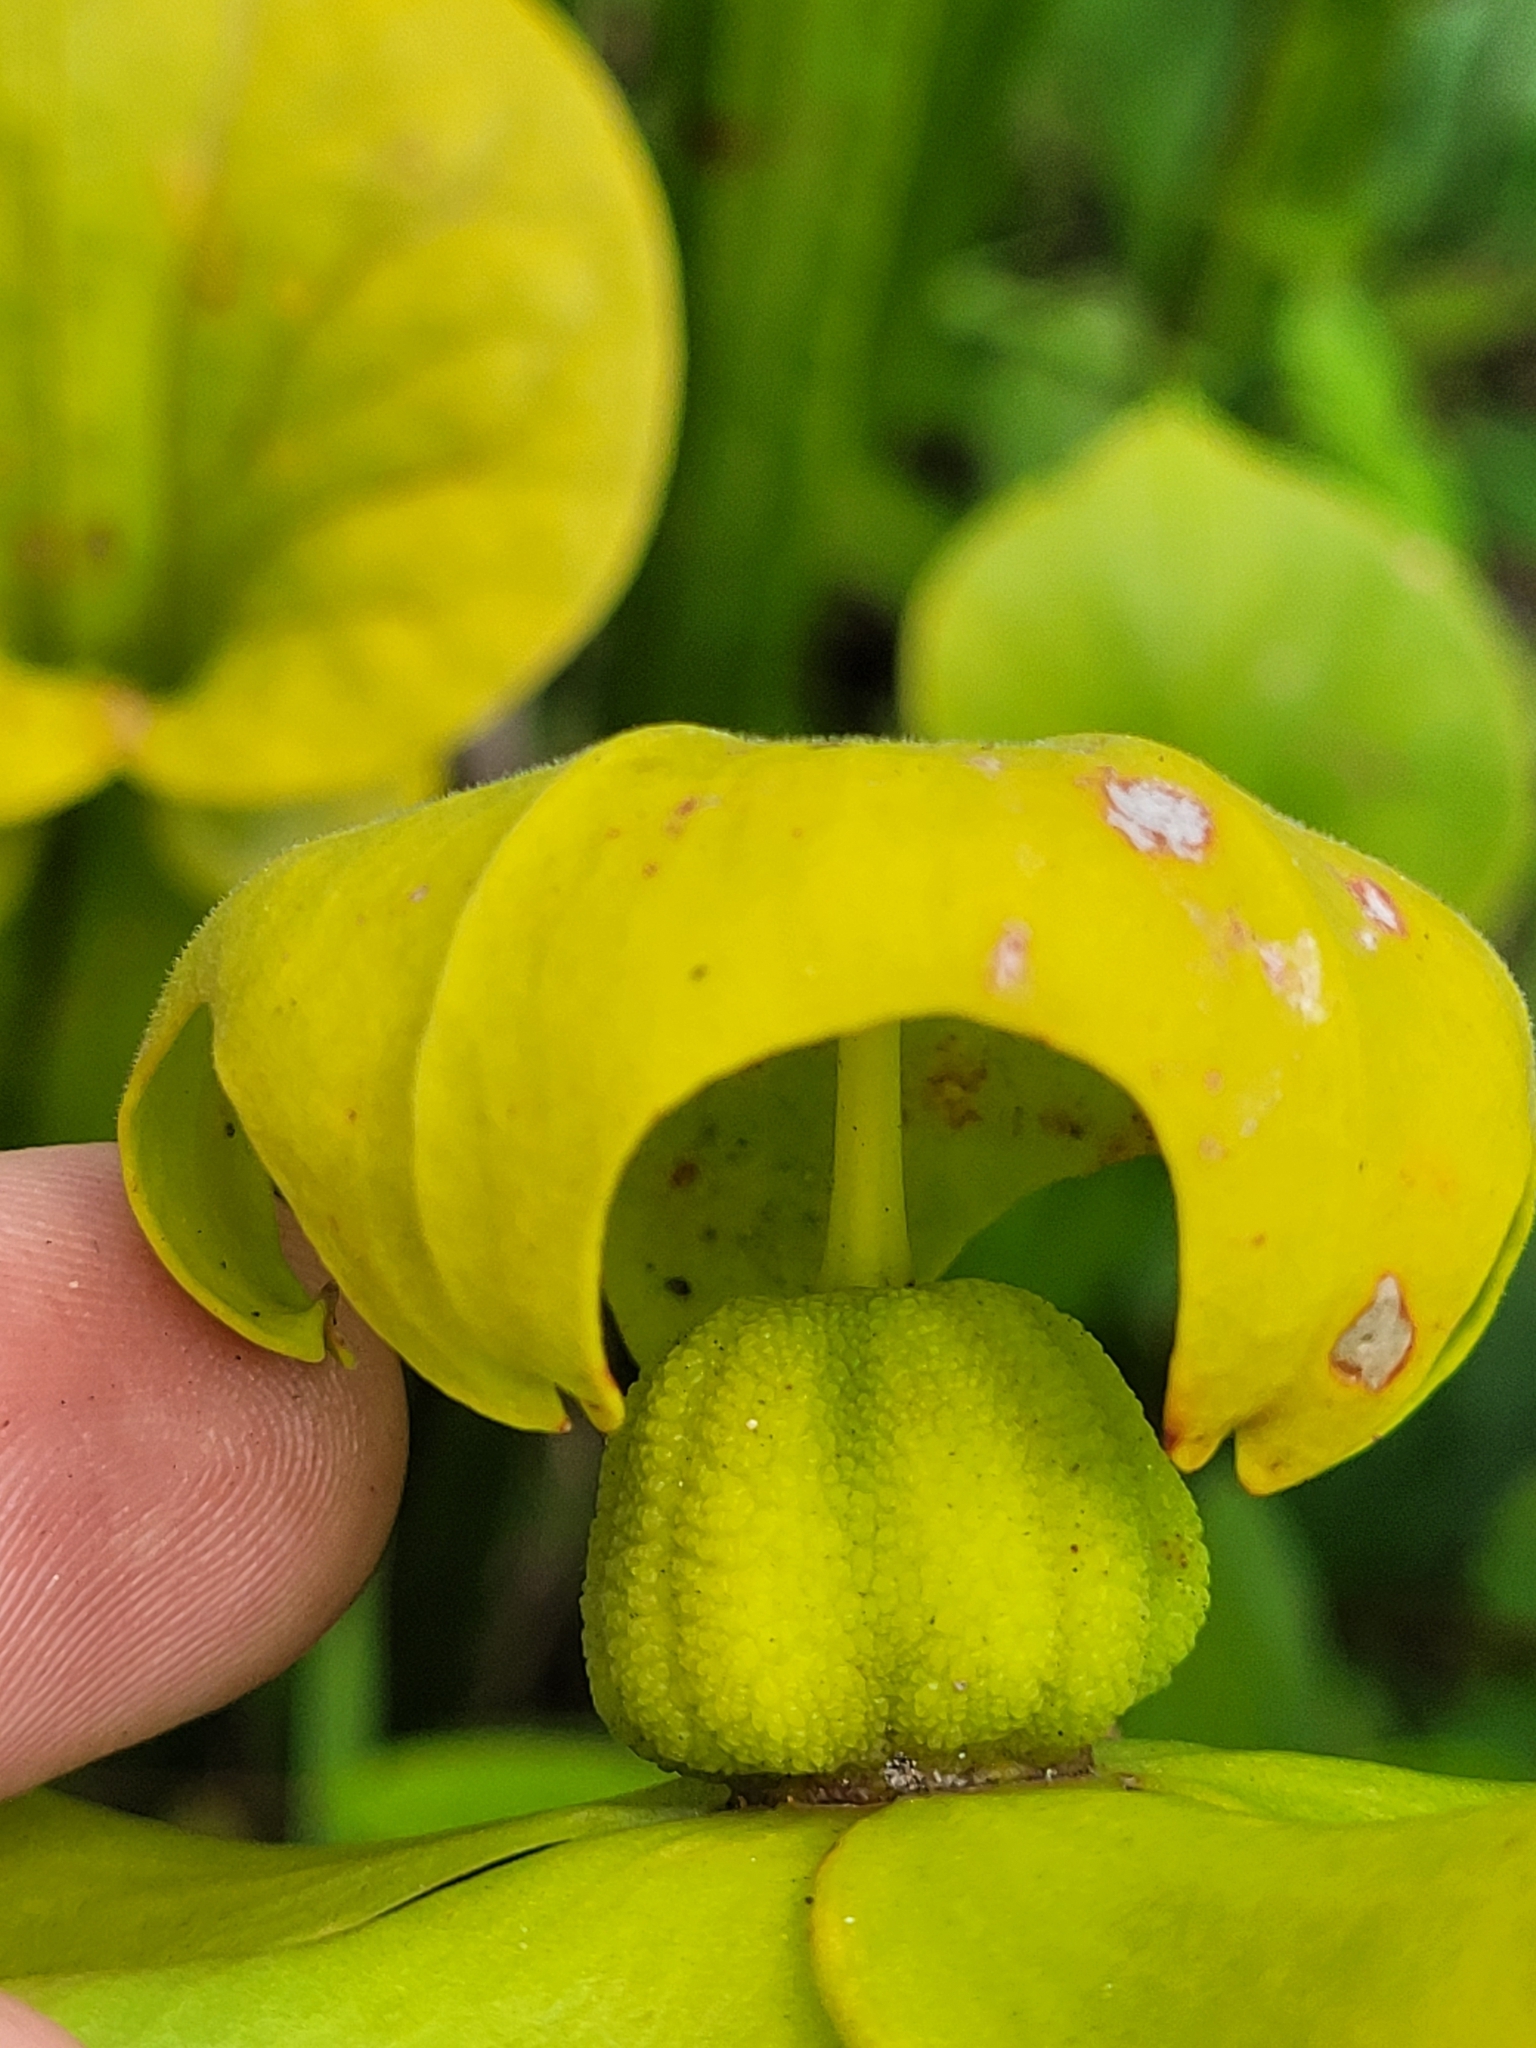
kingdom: Plantae
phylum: Tracheophyta
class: Magnoliopsida
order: Ericales
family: Sarraceniaceae
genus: Sarracenia
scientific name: Sarracenia flava
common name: Trumpets
